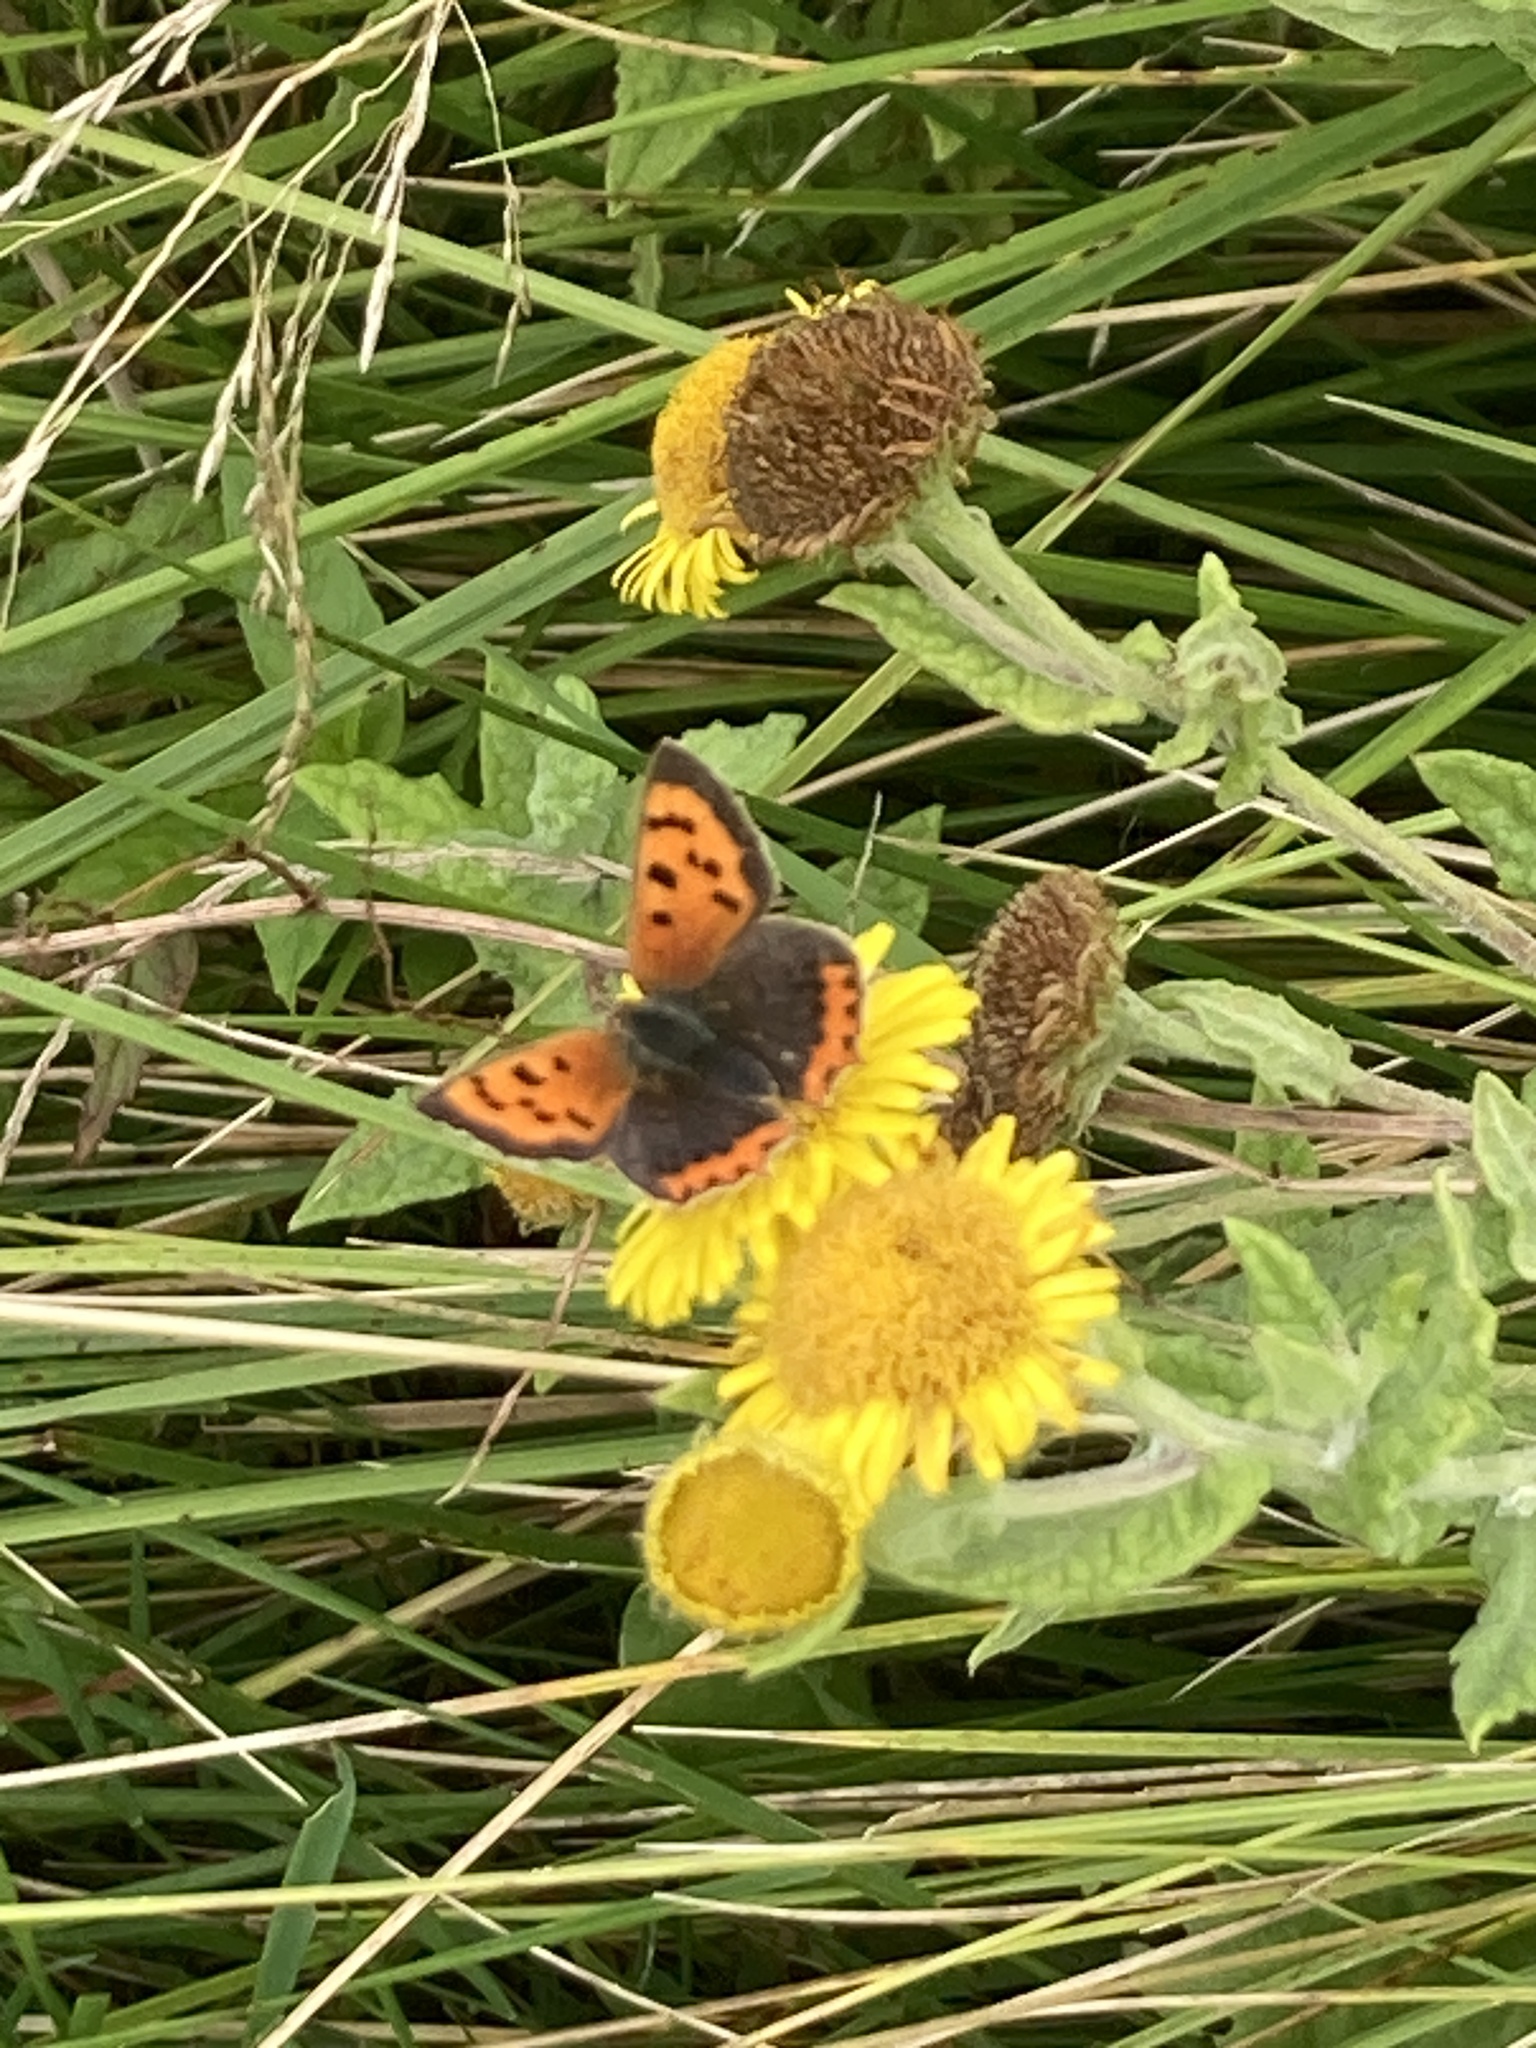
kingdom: Animalia
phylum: Arthropoda
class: Insecta
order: Lepidoptera
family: Lycaenidae
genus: Lycaena
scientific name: Lycaena phlaeas
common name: Small copper
